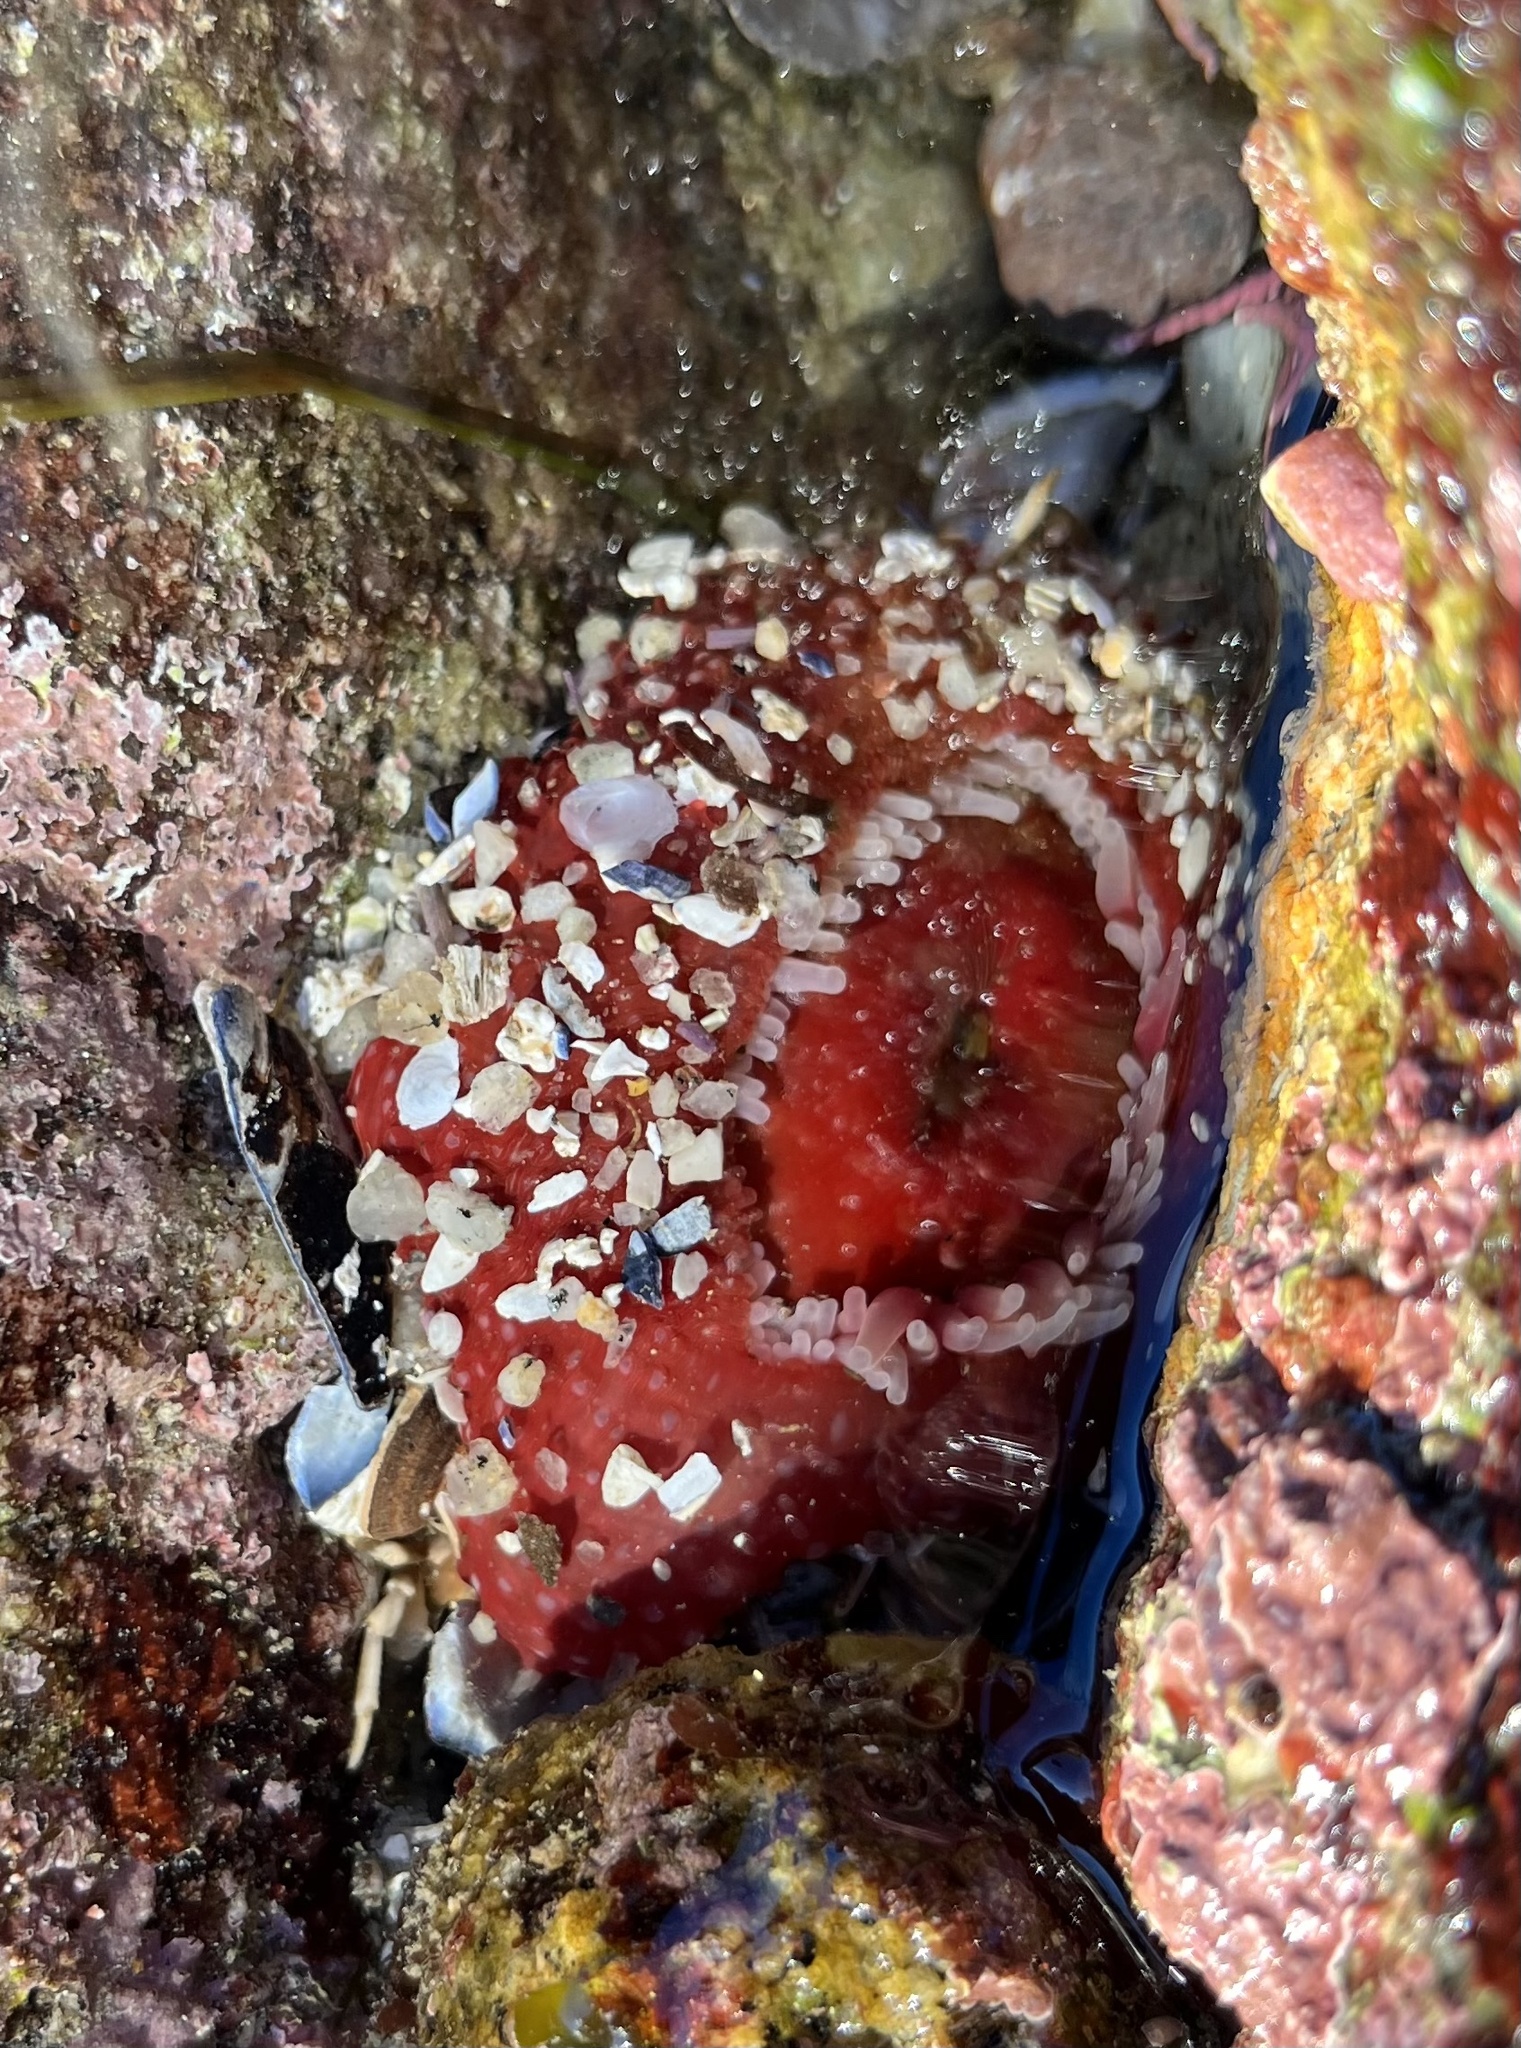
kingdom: Animalia
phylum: Cnidaria
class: Anthozoa
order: Actiniaria
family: Actiniidae
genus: Urticina
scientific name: Urticina clandestina
